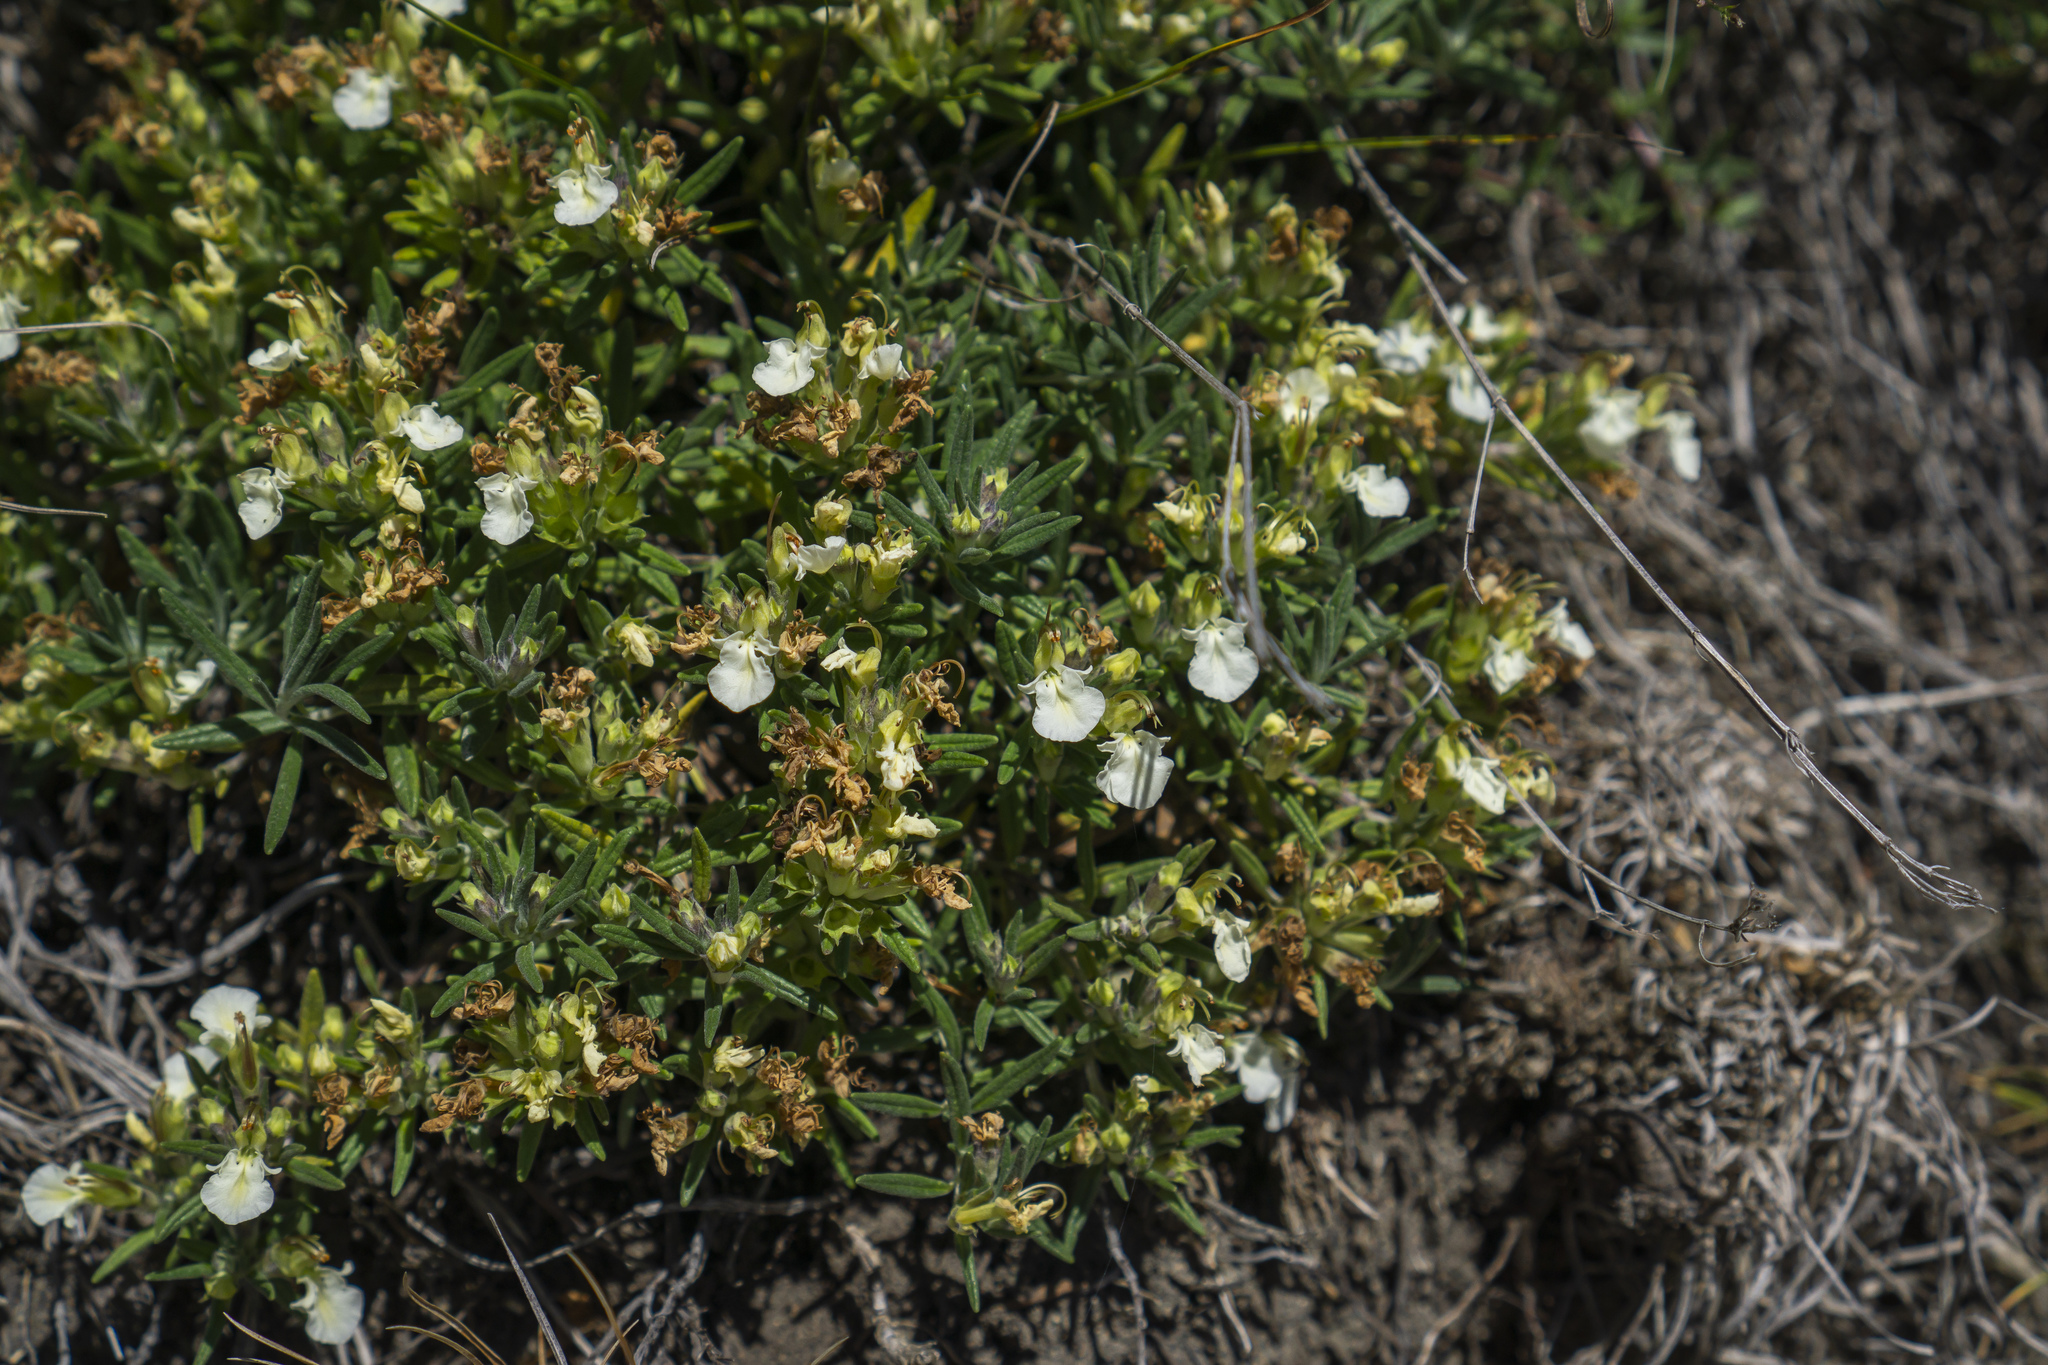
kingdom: Plantae
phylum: Tracheophyta
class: Magnoliopsida
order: Lamiales
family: Lamiaceae
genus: Teucrium
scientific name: Teucrium montanum
